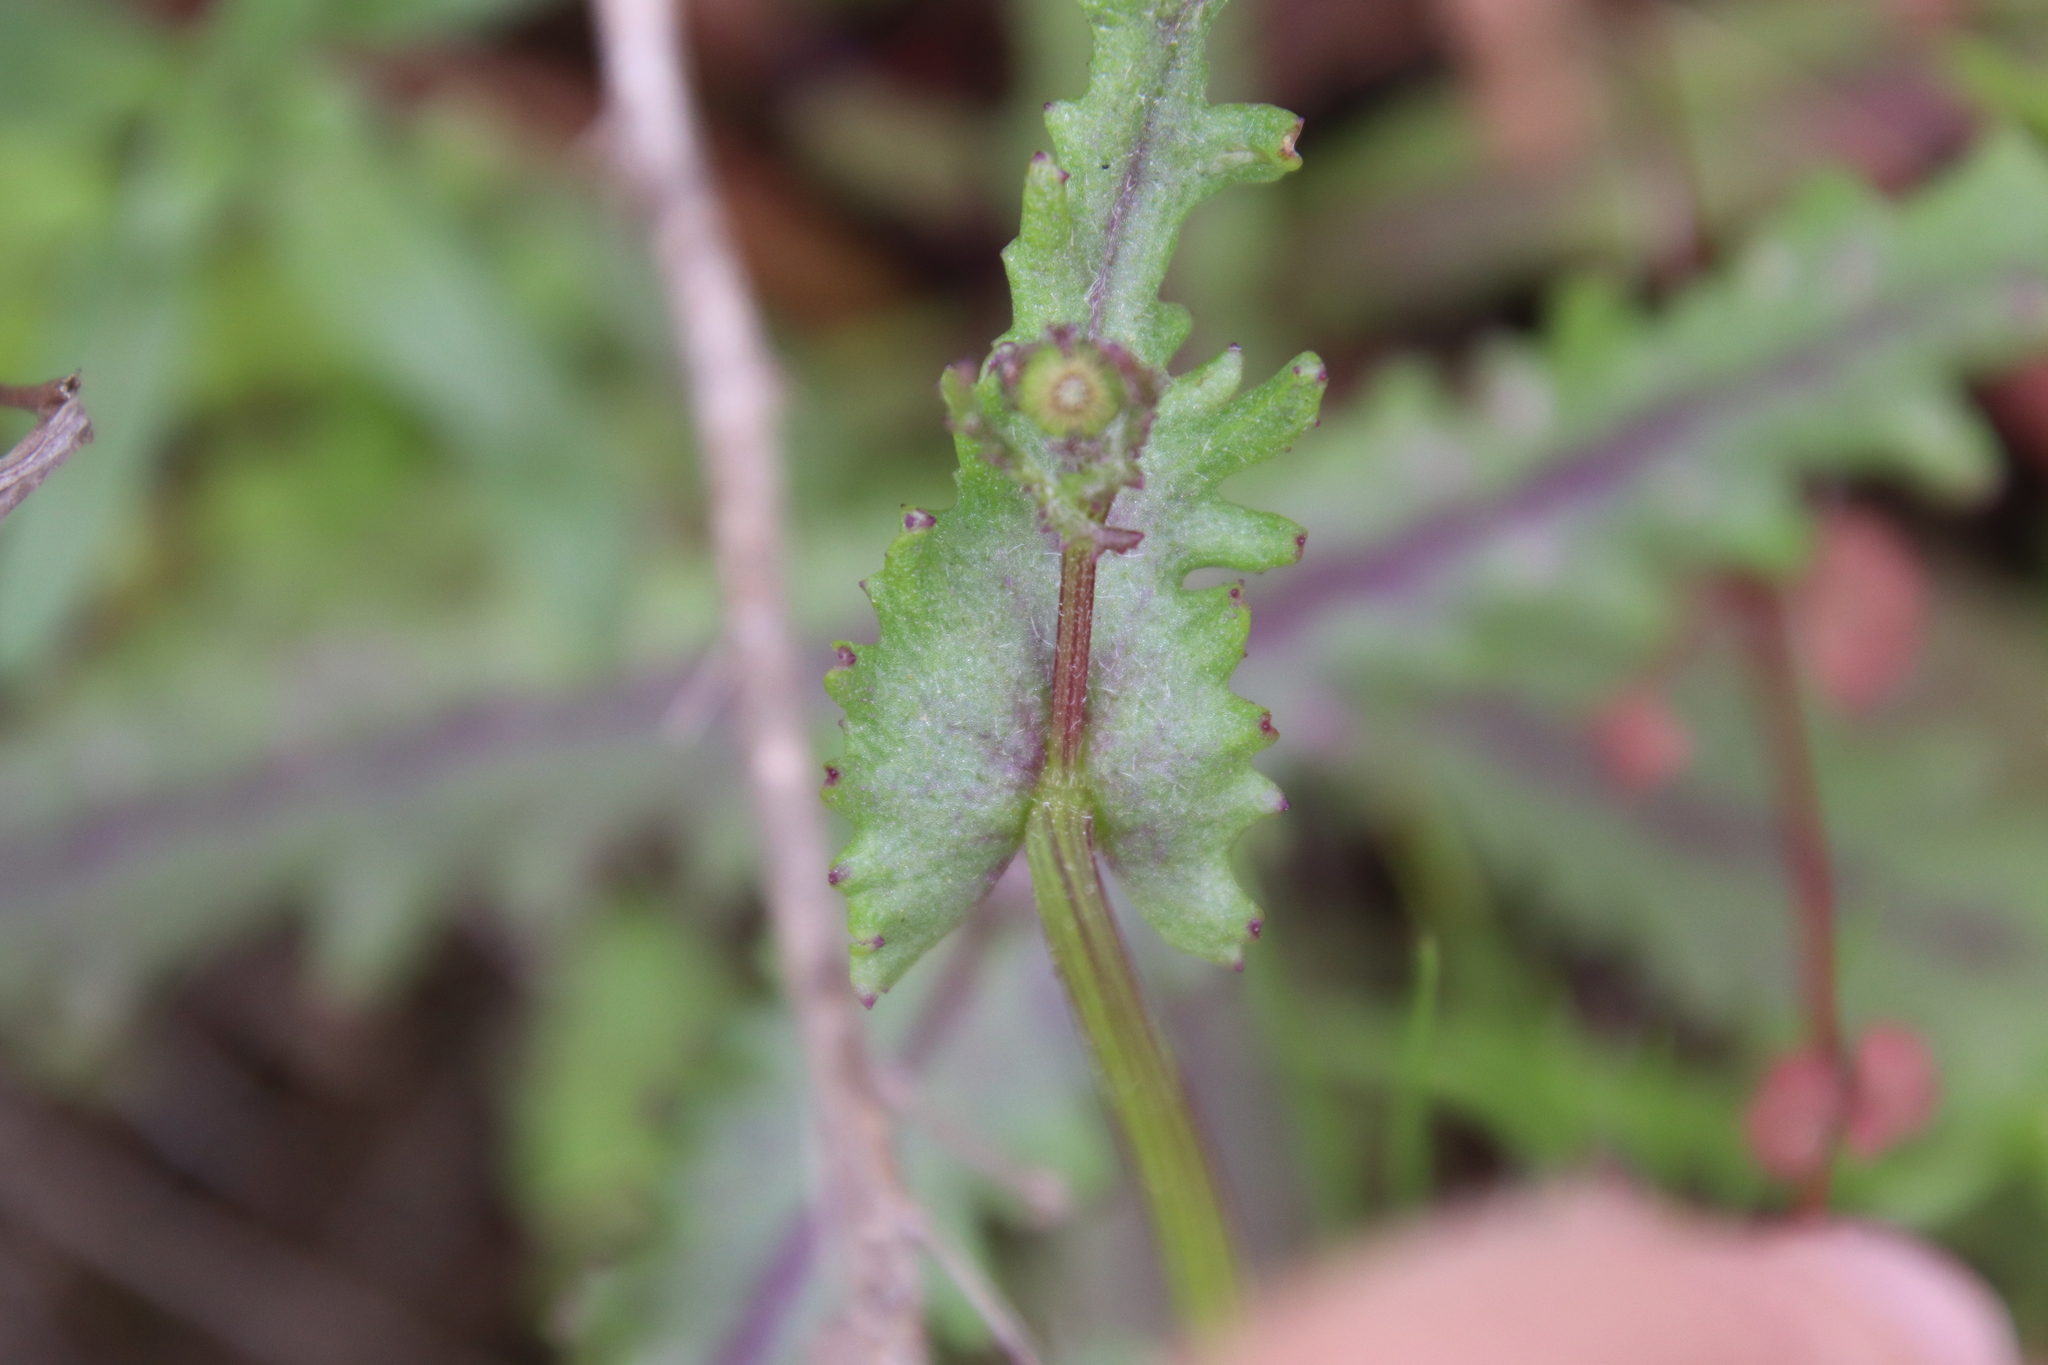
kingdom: Plantae
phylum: Tracheophyta
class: Magnoliopsida
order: Asterales
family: Asteraceae
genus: Senecio
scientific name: Senecio californicus
